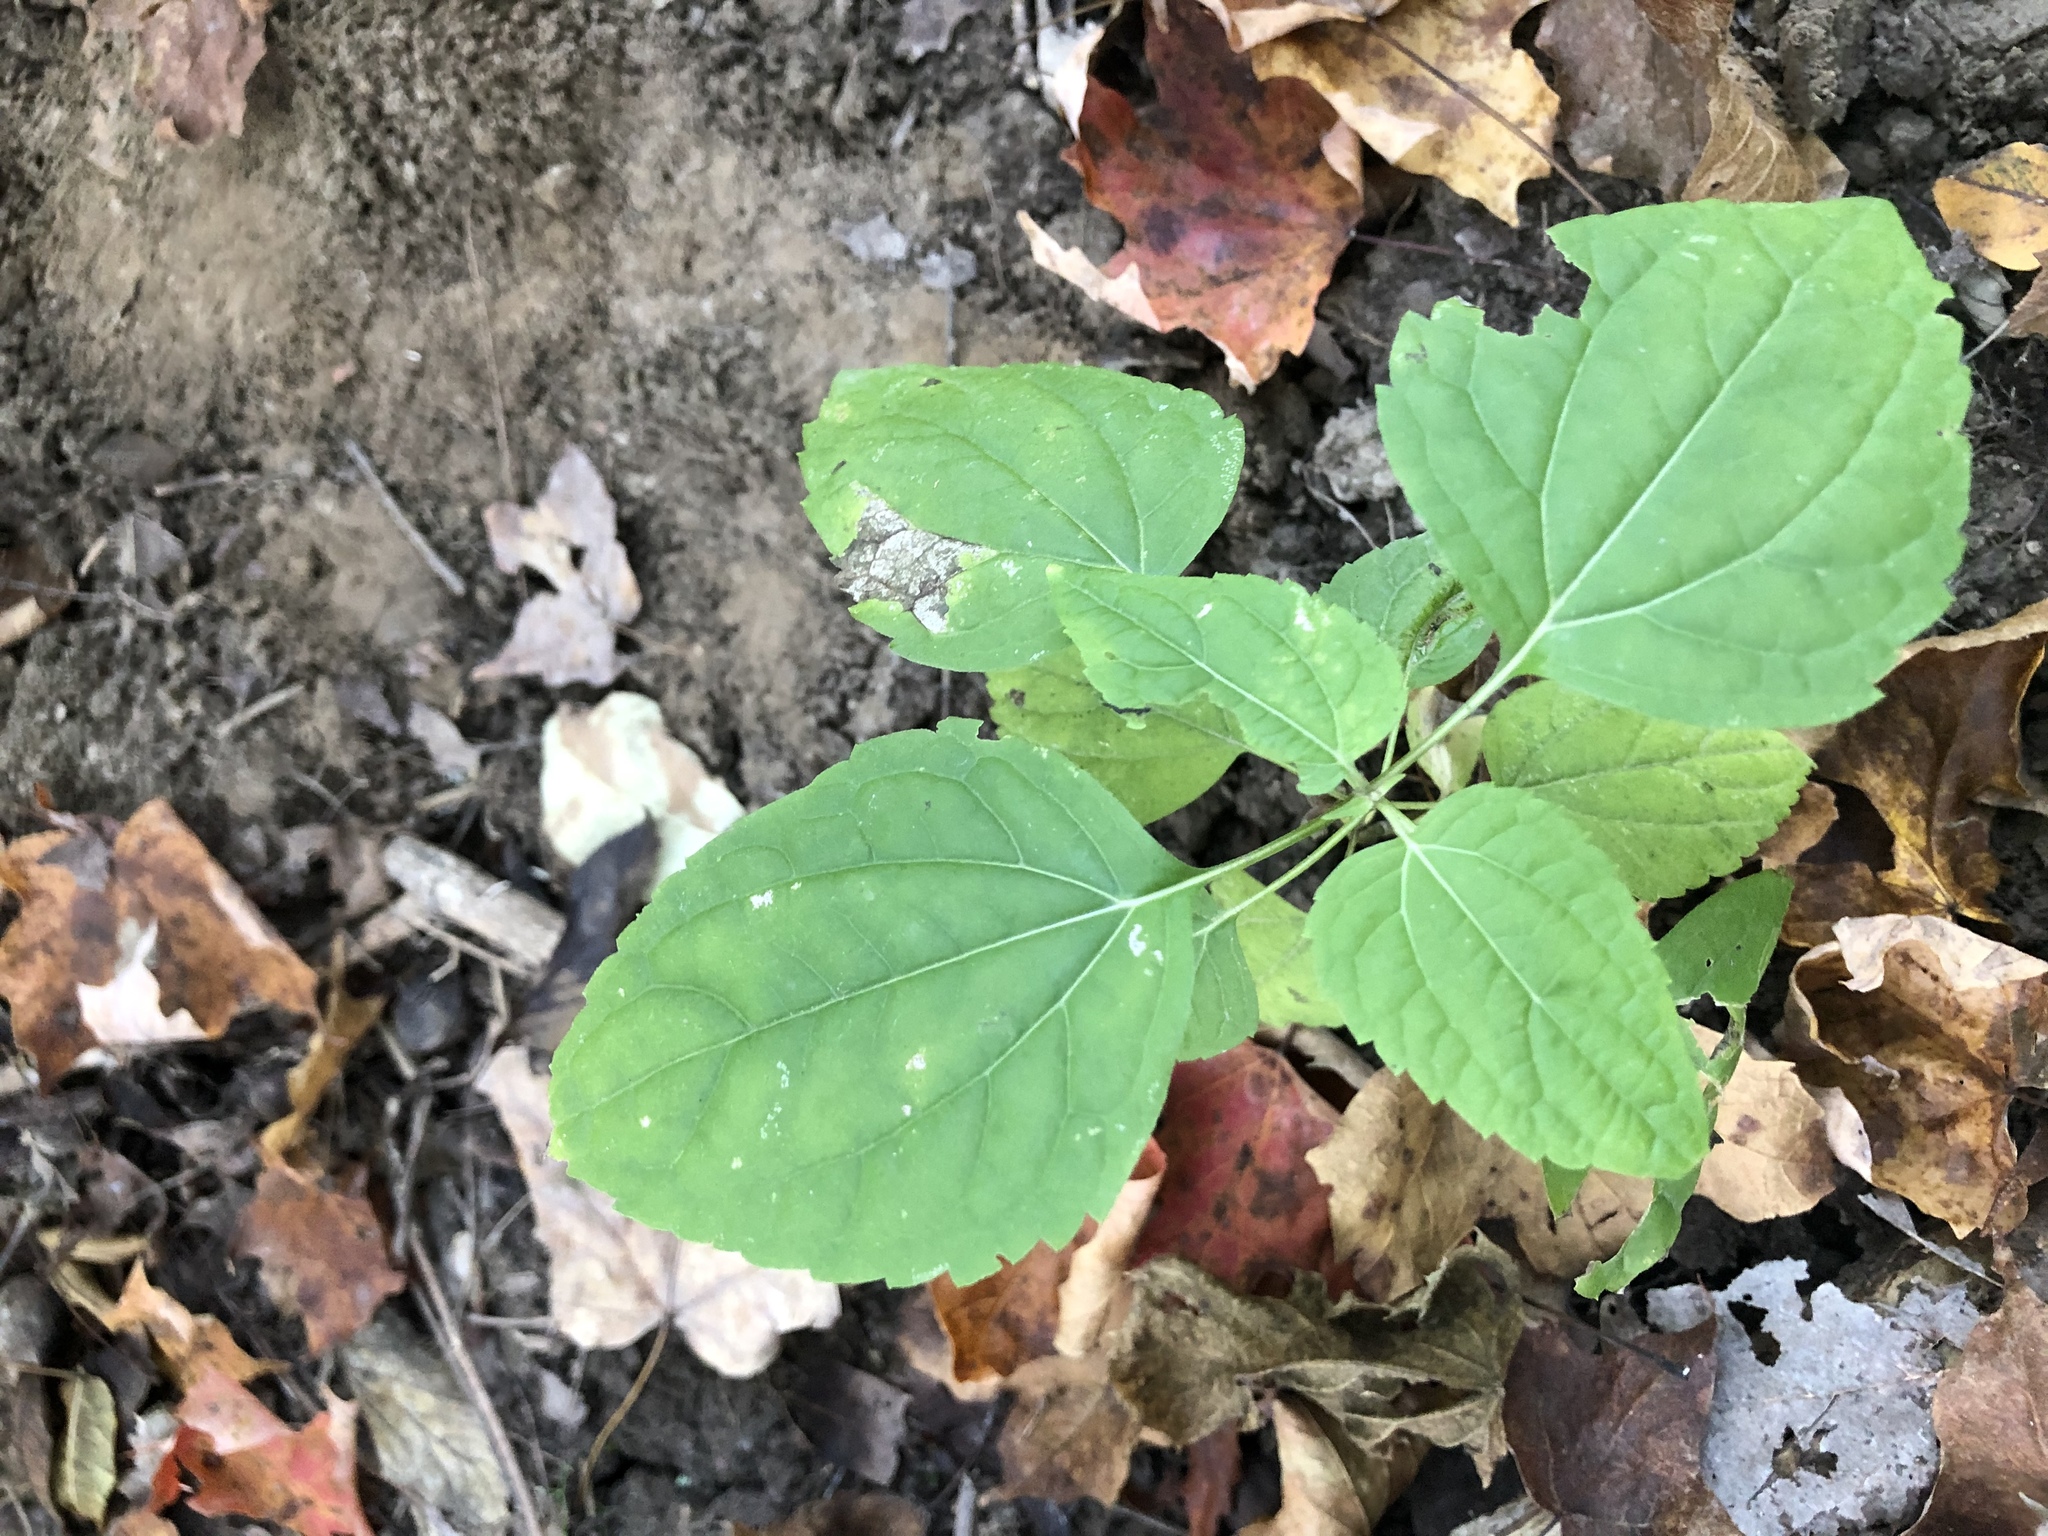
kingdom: Plantae
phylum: Tracheophyta
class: Magnoliopsida
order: Asterales
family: Asteraceae
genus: Ageratina
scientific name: Ageratina altissima
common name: White snakeroot
